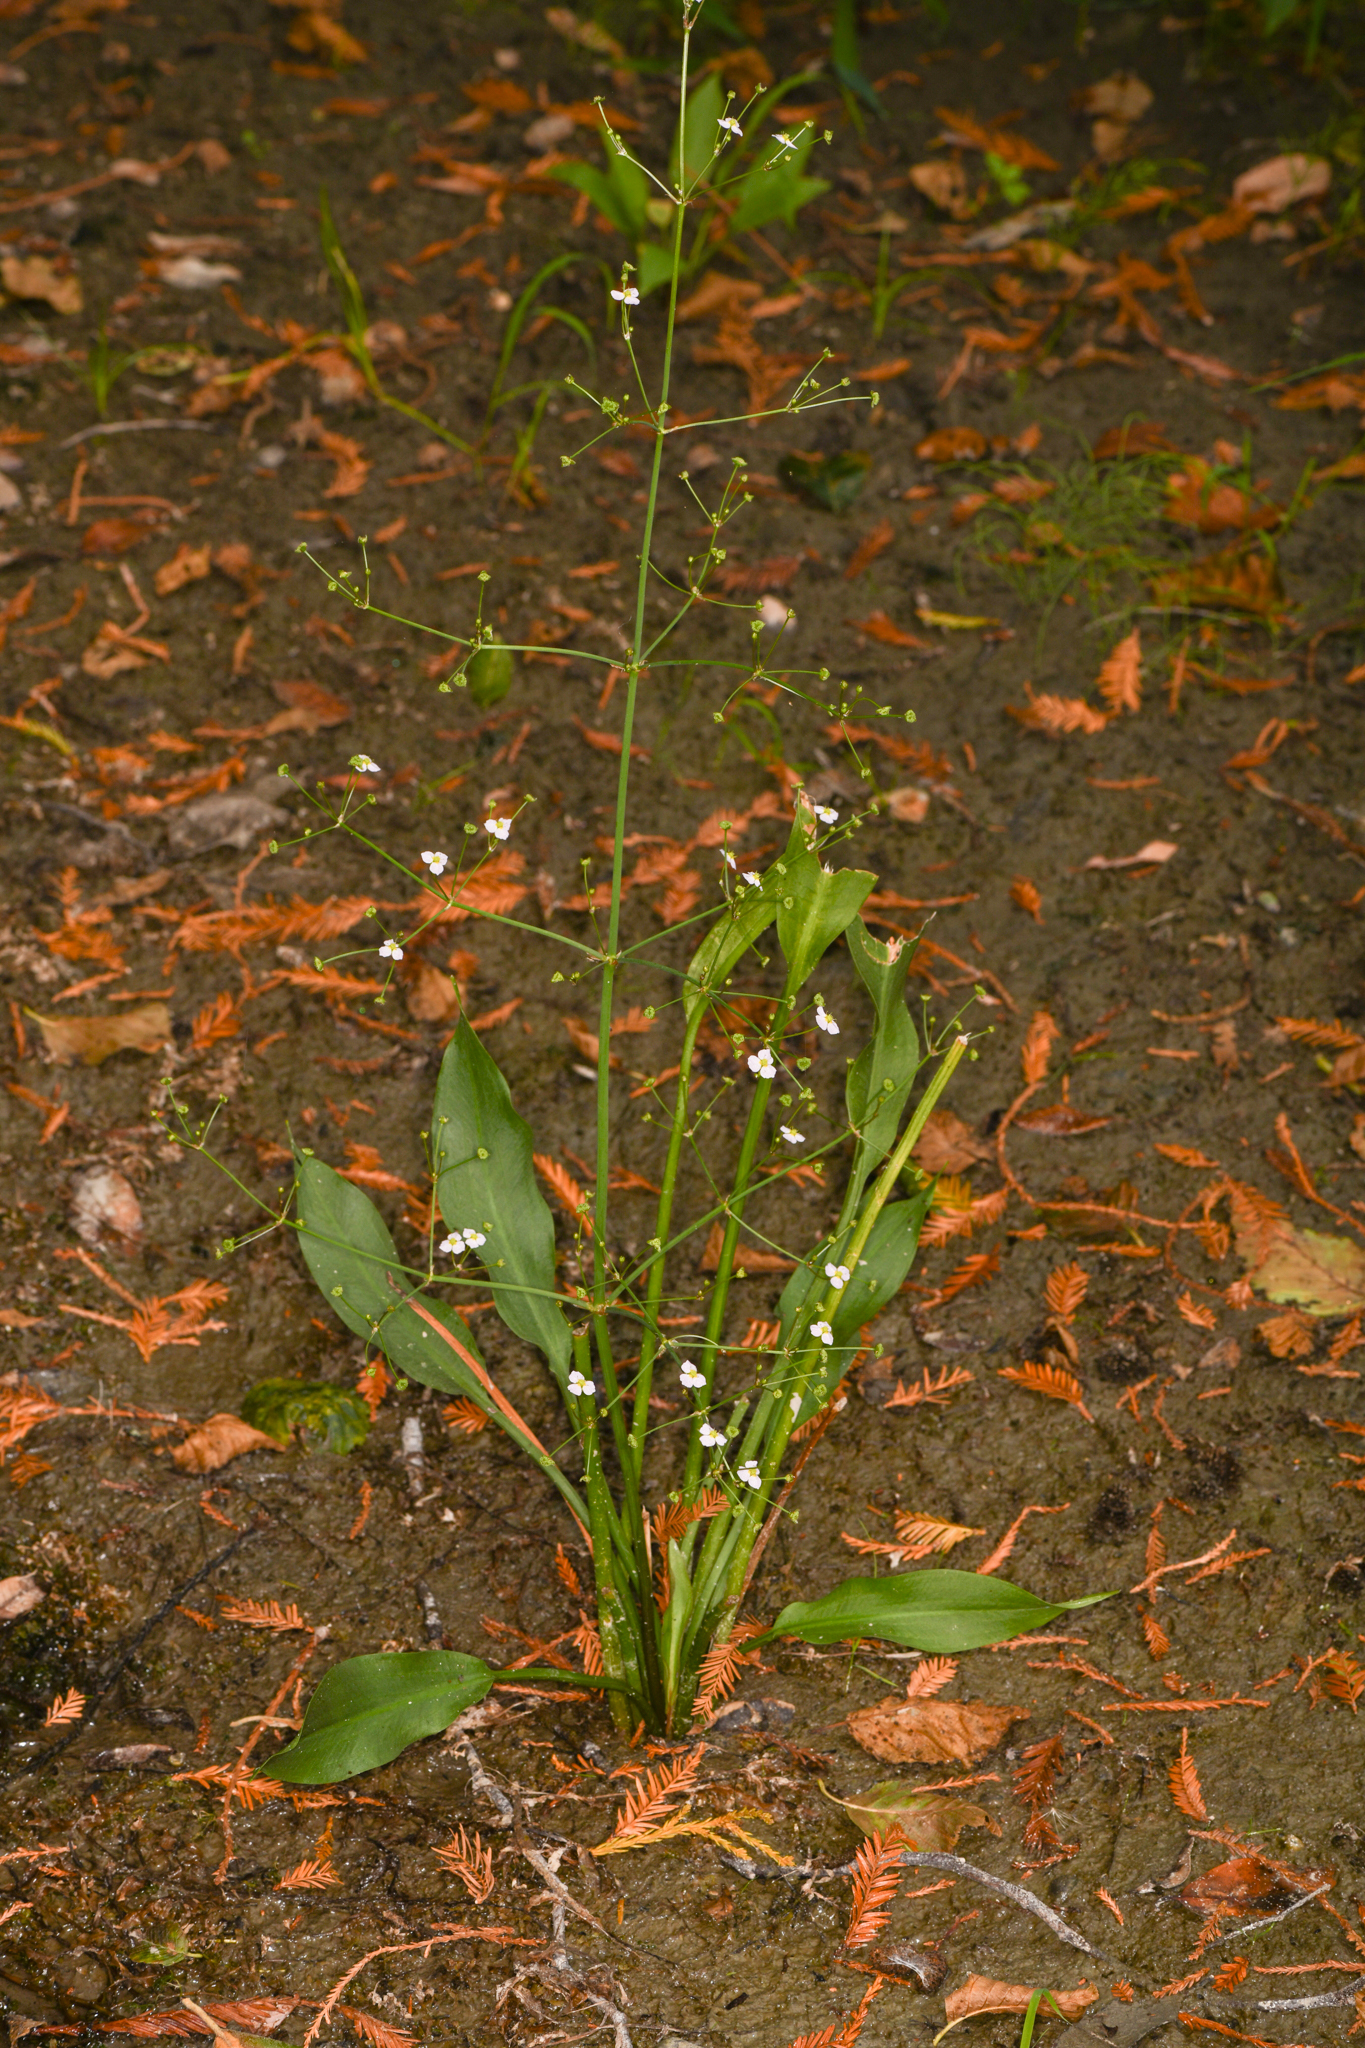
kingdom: Plantae
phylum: Tracheophyta
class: Liliopsida
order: Alismatales
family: Alismataceae
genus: Alisma
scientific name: Alisma lanceolatum
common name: Narrow-leaved water-plantain
